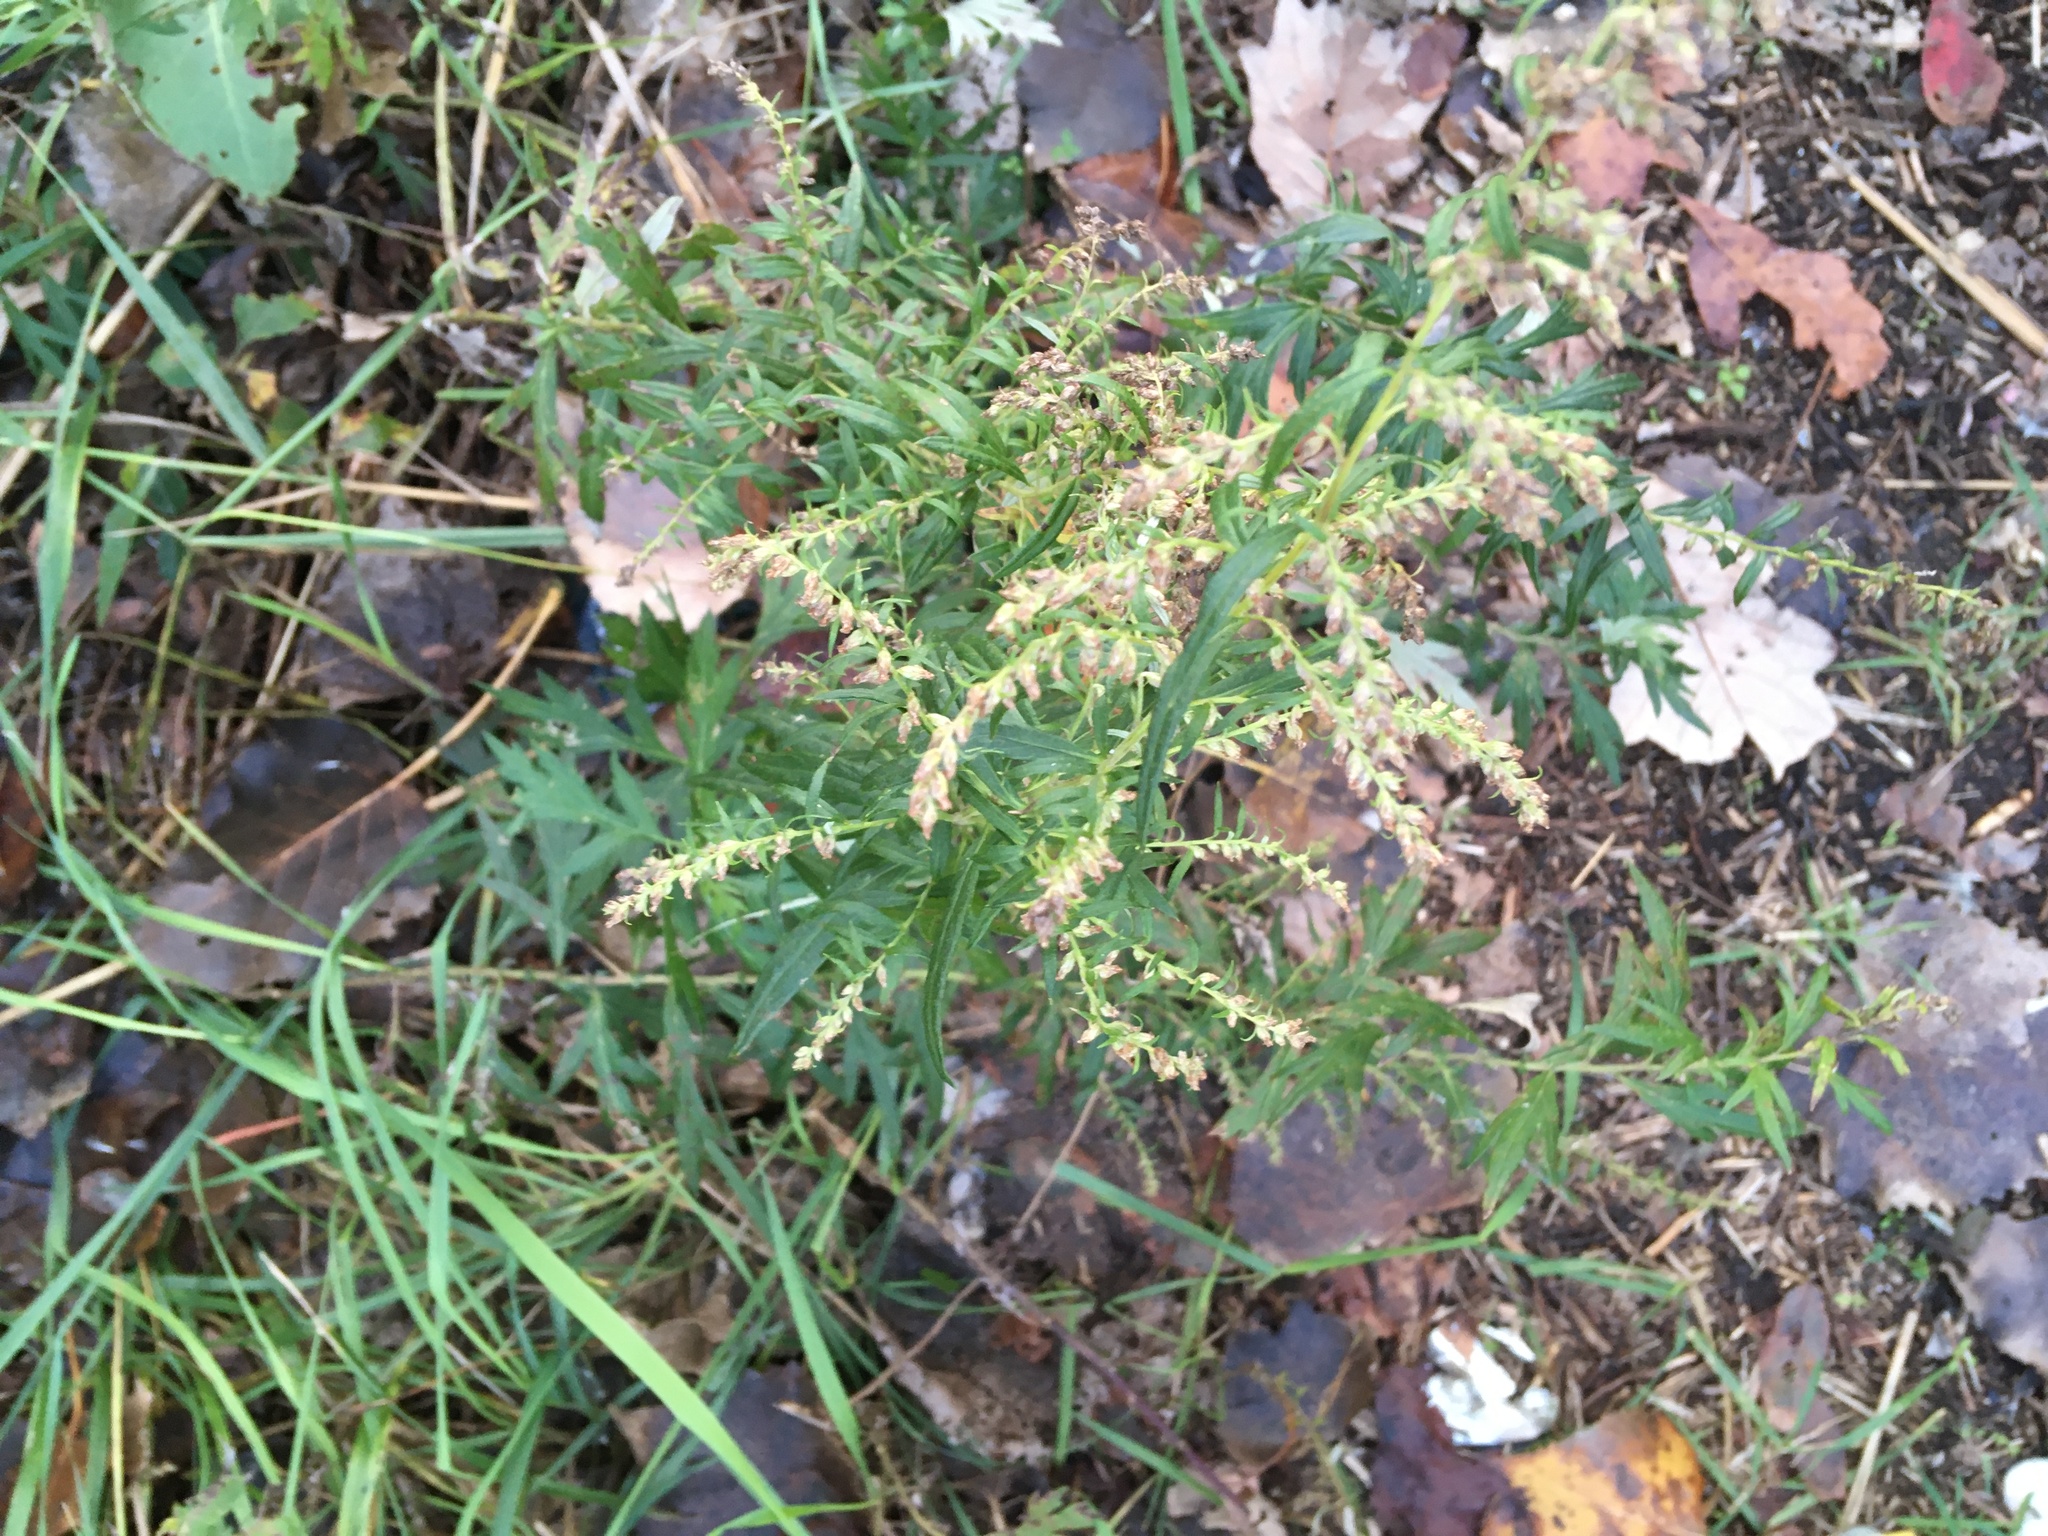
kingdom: Plantae
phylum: Tracheophyta
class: Magnoliopsida
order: Asterales
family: Asteraceae
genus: Artemisia
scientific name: Artemisia vulgaris
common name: Mugwort
